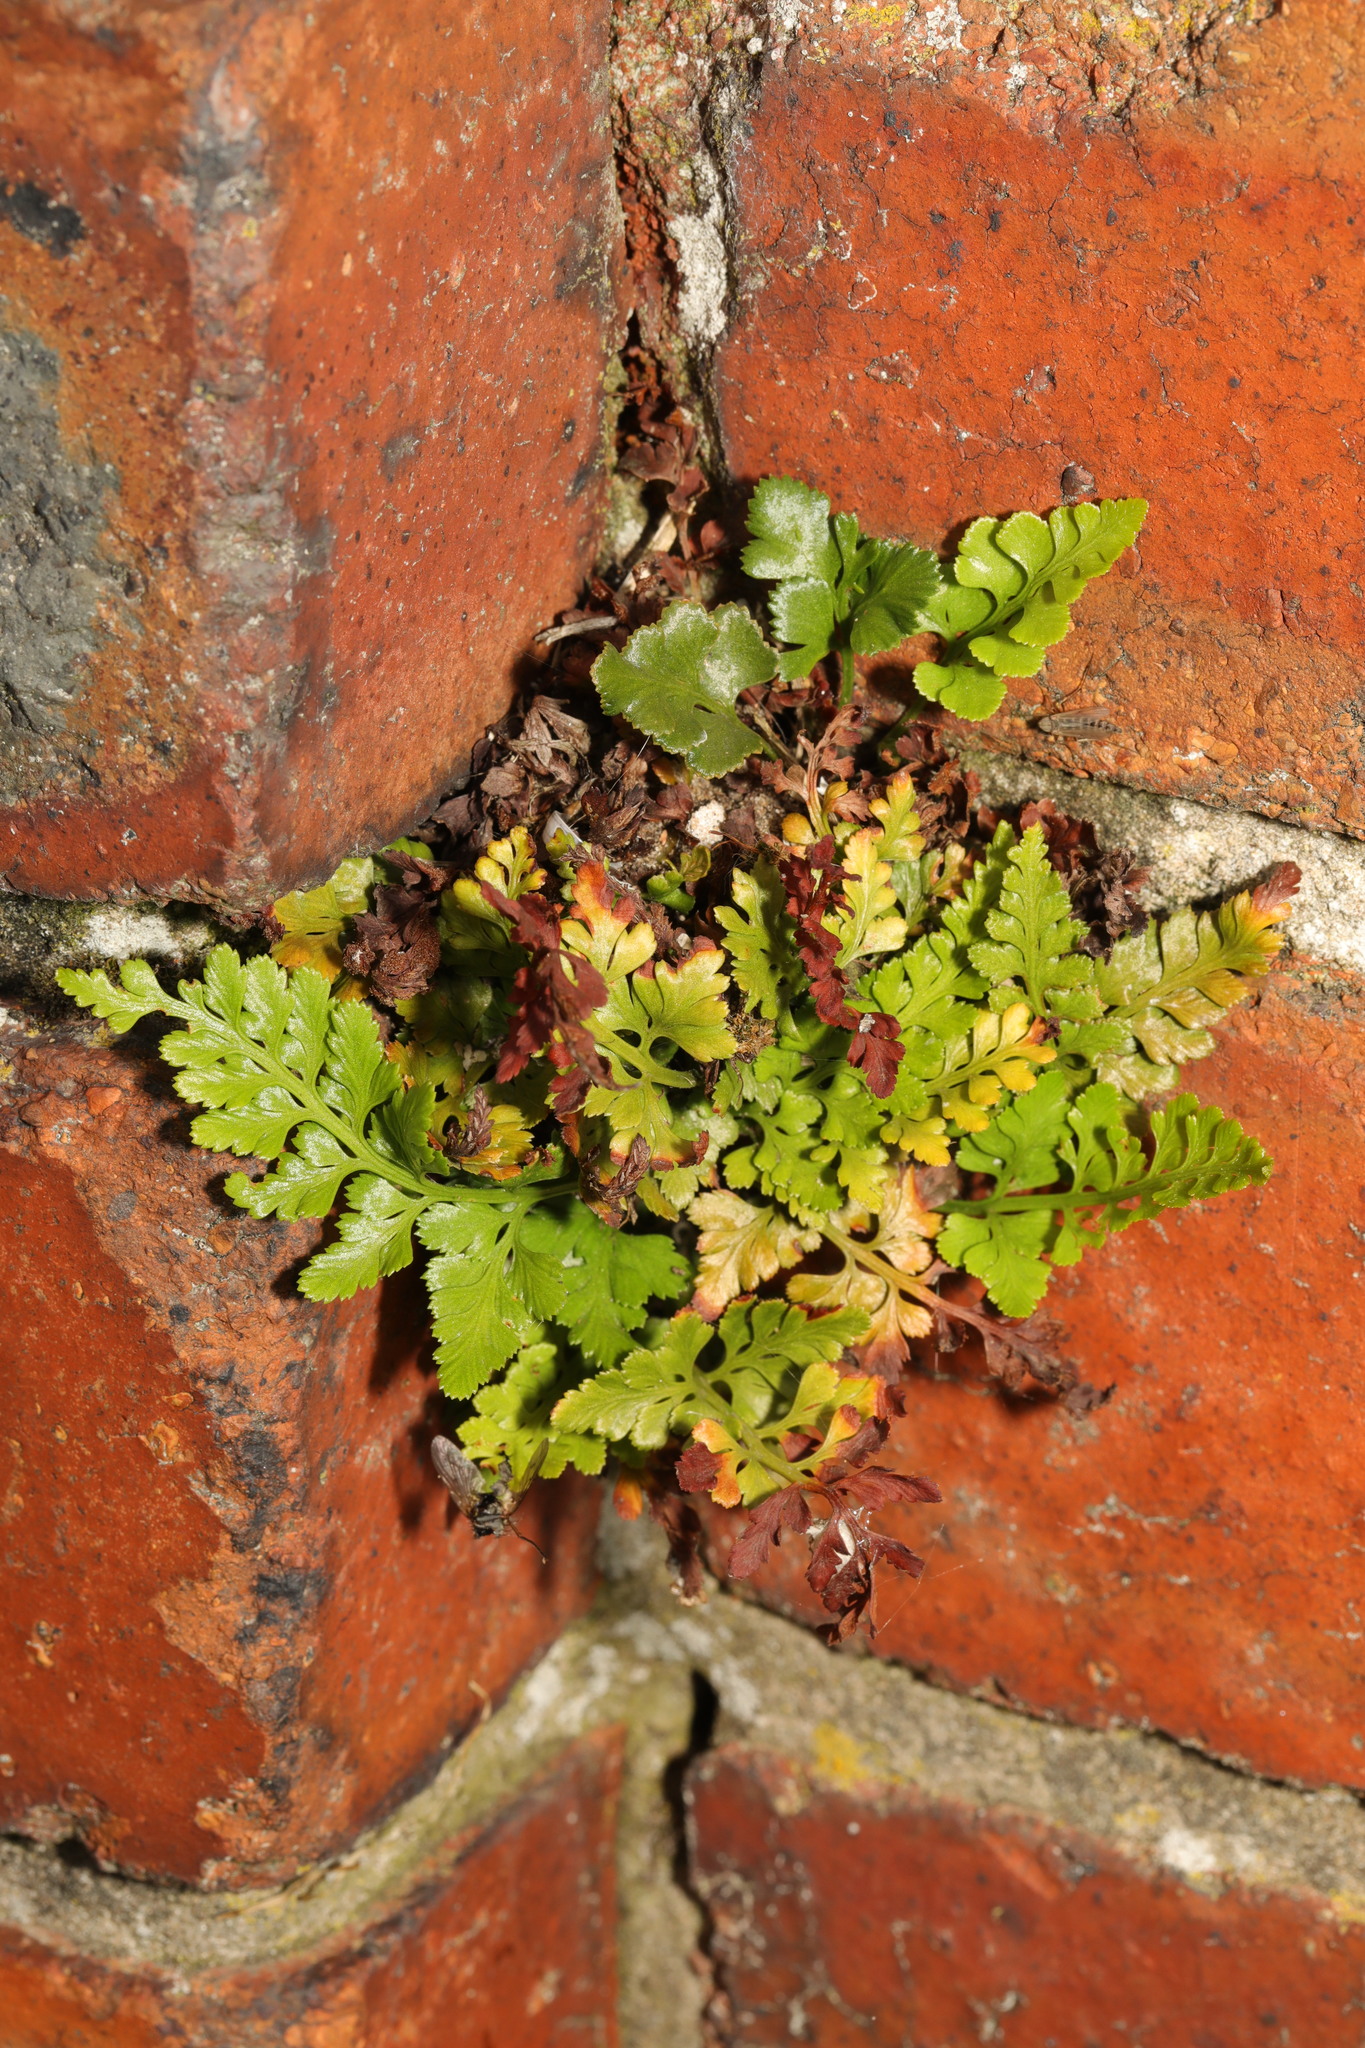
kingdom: Plantae
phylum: Tracheophyta
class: Polypodiopsida
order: Polypodiales
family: Aspleniaceae
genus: Asplenium
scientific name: Asplenium adiantum-nigrum
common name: Black spleenwort
